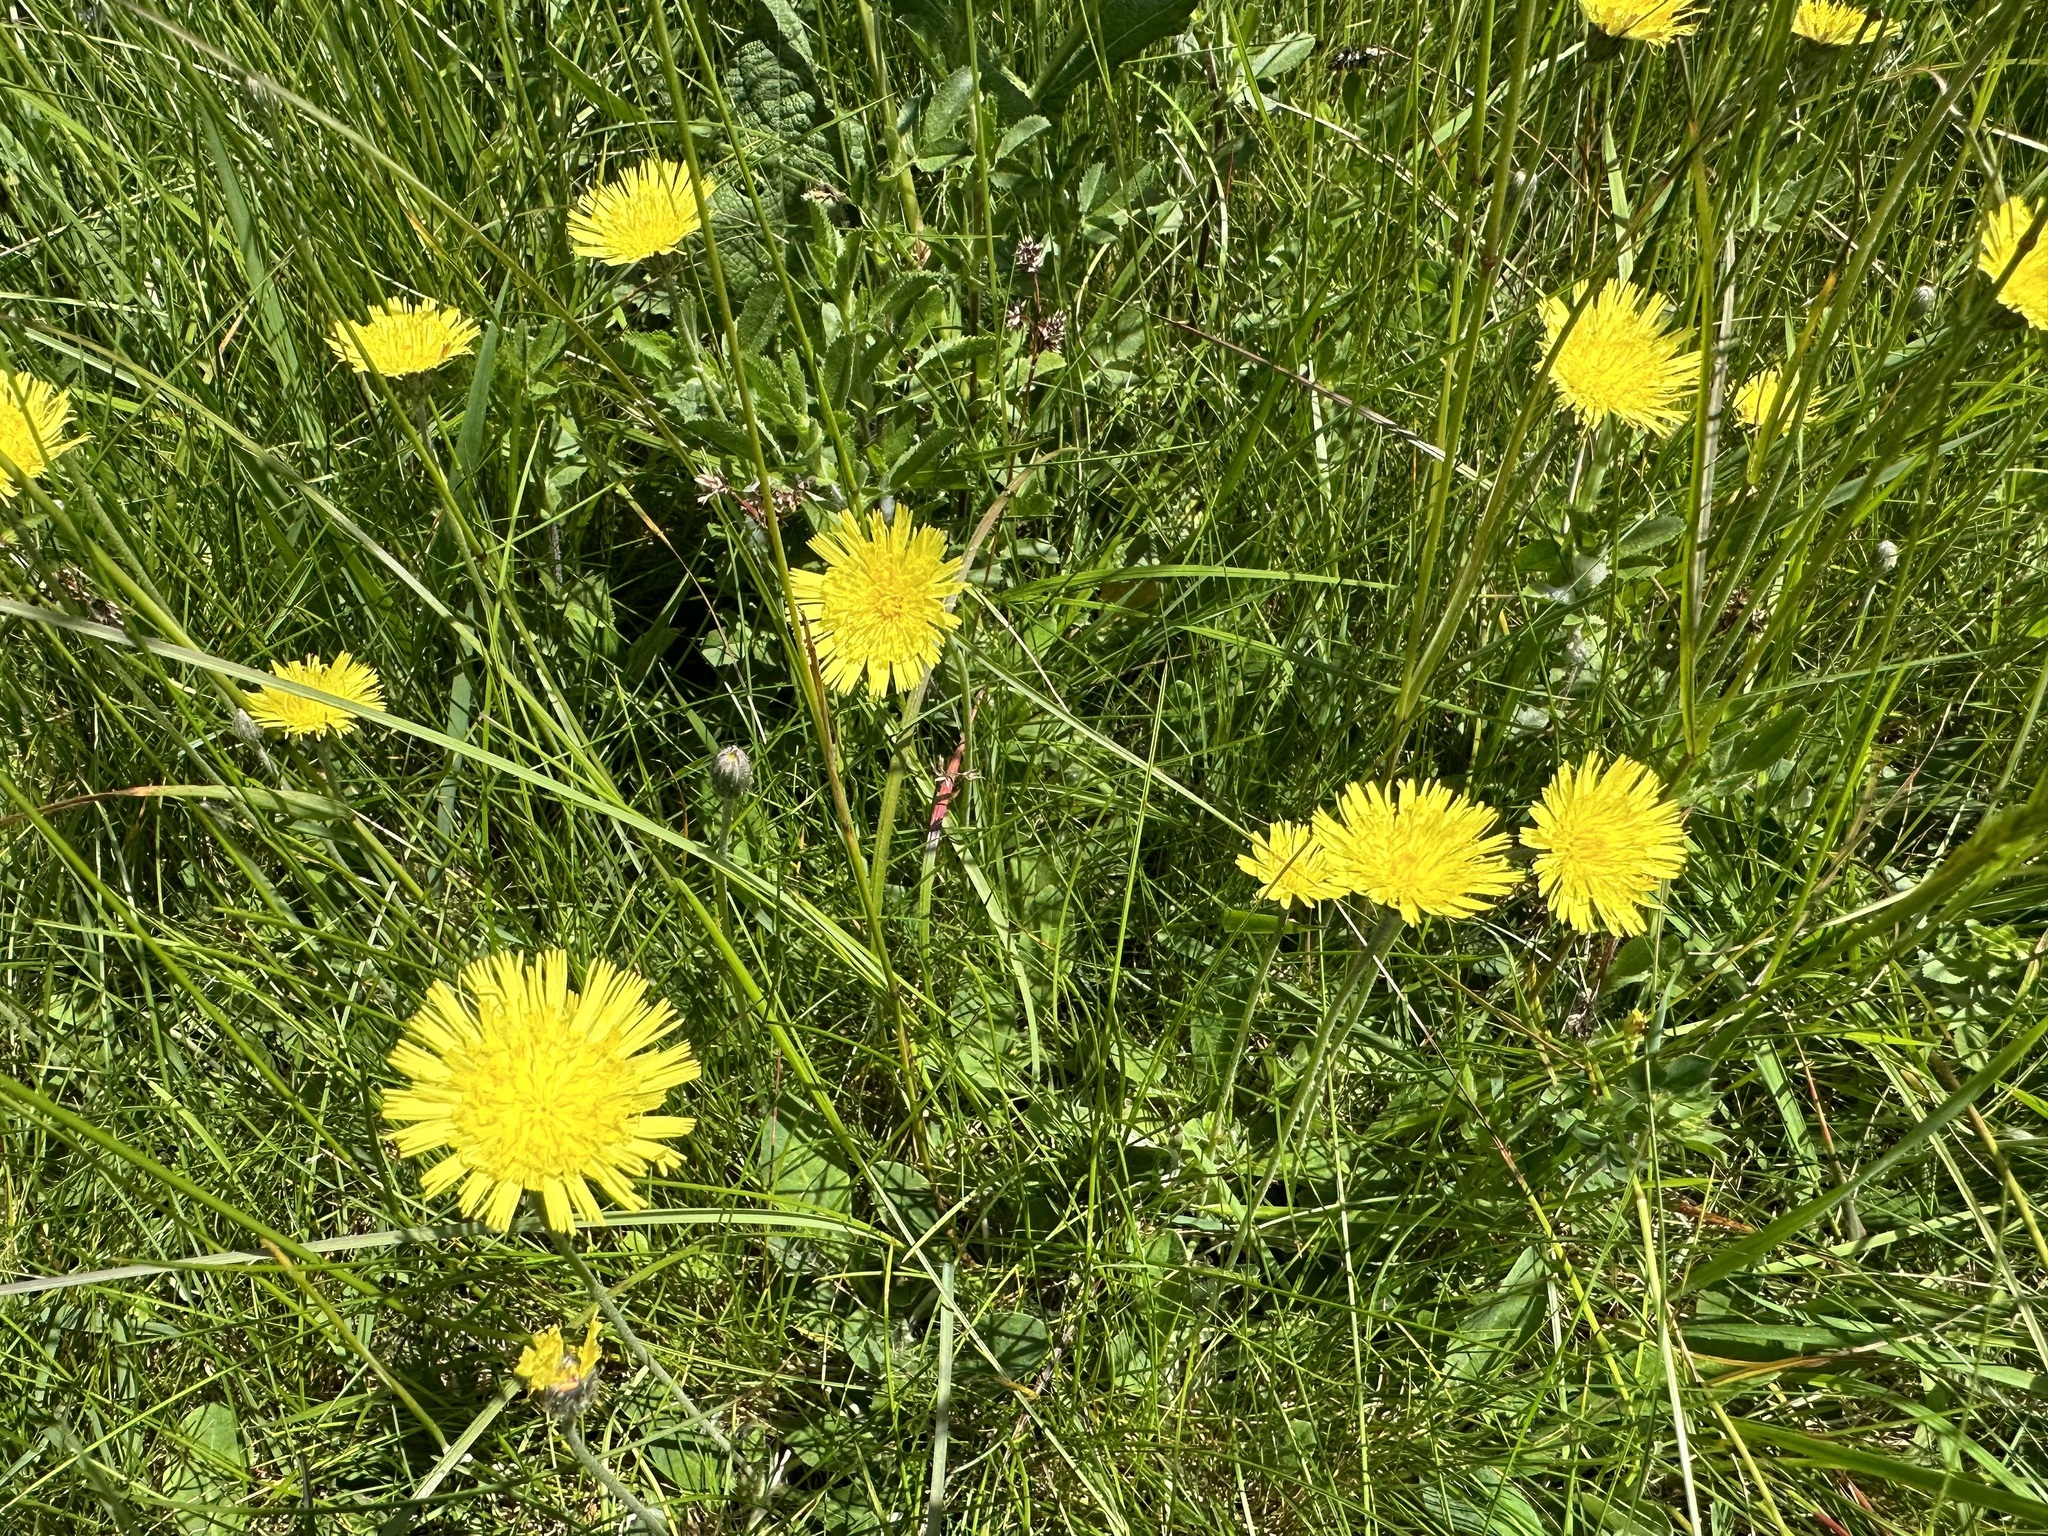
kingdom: Plantae
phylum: Tracheophyta
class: Magnoliopsida
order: Asterales
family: Asteraceae
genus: Pilosella
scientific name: Pilosella officinarum
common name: Mouse-ear hawkweed
